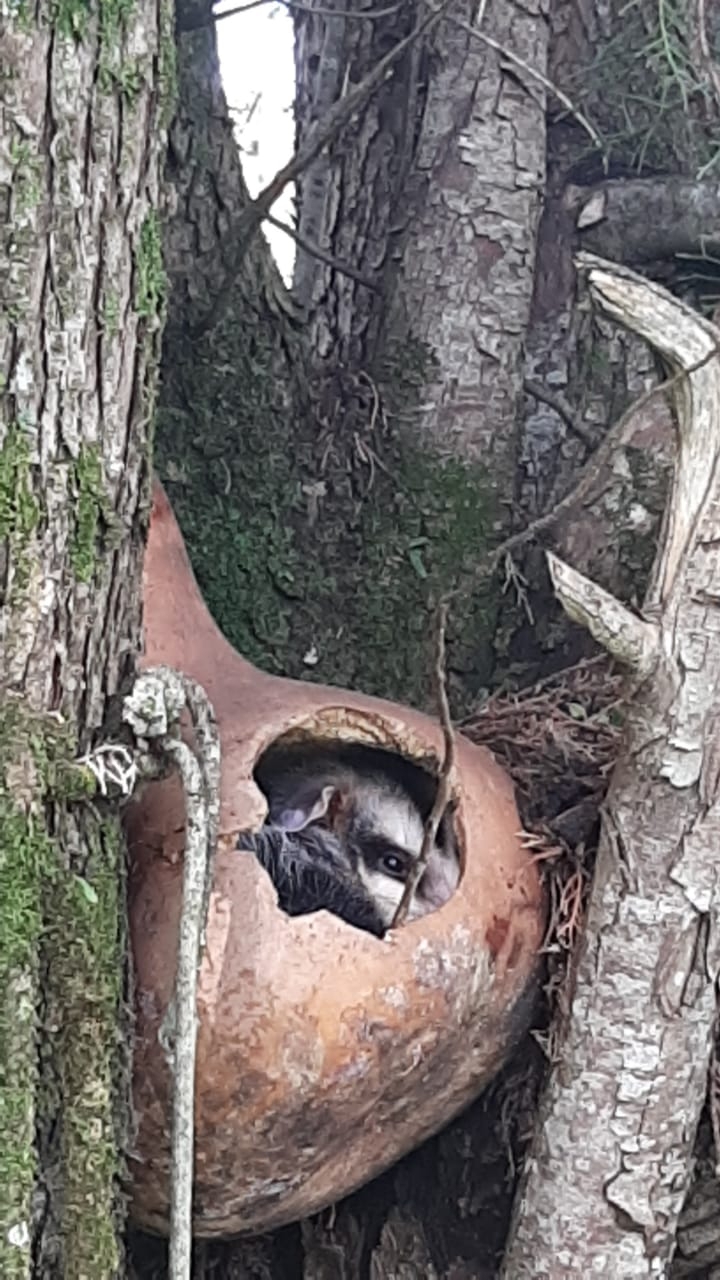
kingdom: Animalia
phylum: Chordata
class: Mammalia
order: Didelphimorphia
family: Didelphidae
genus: Didelphis
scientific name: Didelphis albiventris
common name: White-eared opossum
